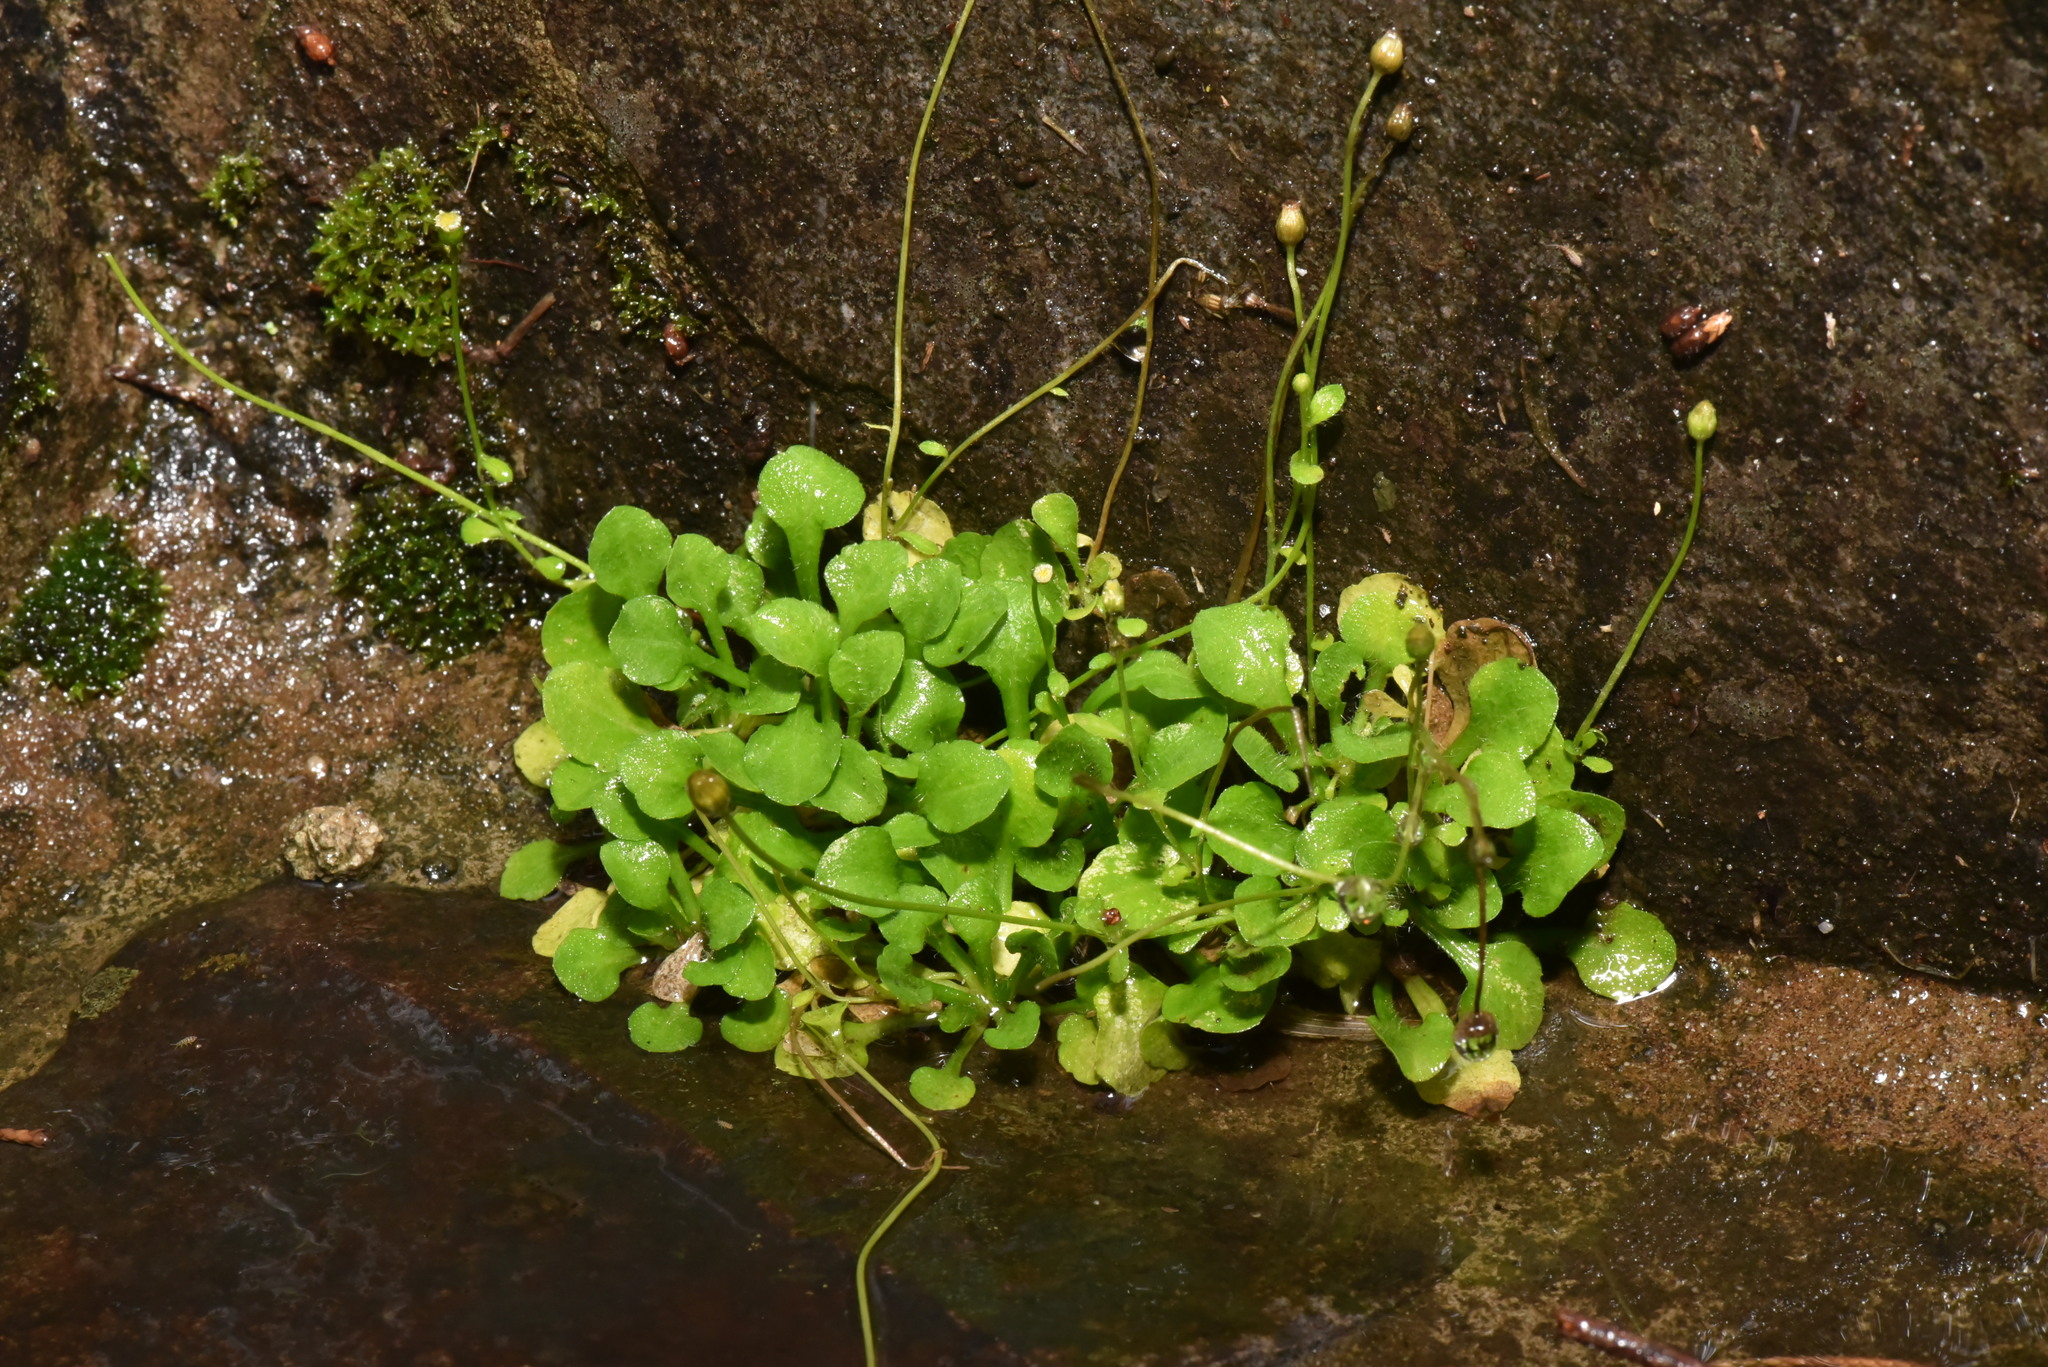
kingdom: Plantae
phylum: Tracheophyta
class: Magnoliopsida
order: Asterales
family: Asteraceae
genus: Erigeron
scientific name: Erigeron bellioides
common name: Bellorita
